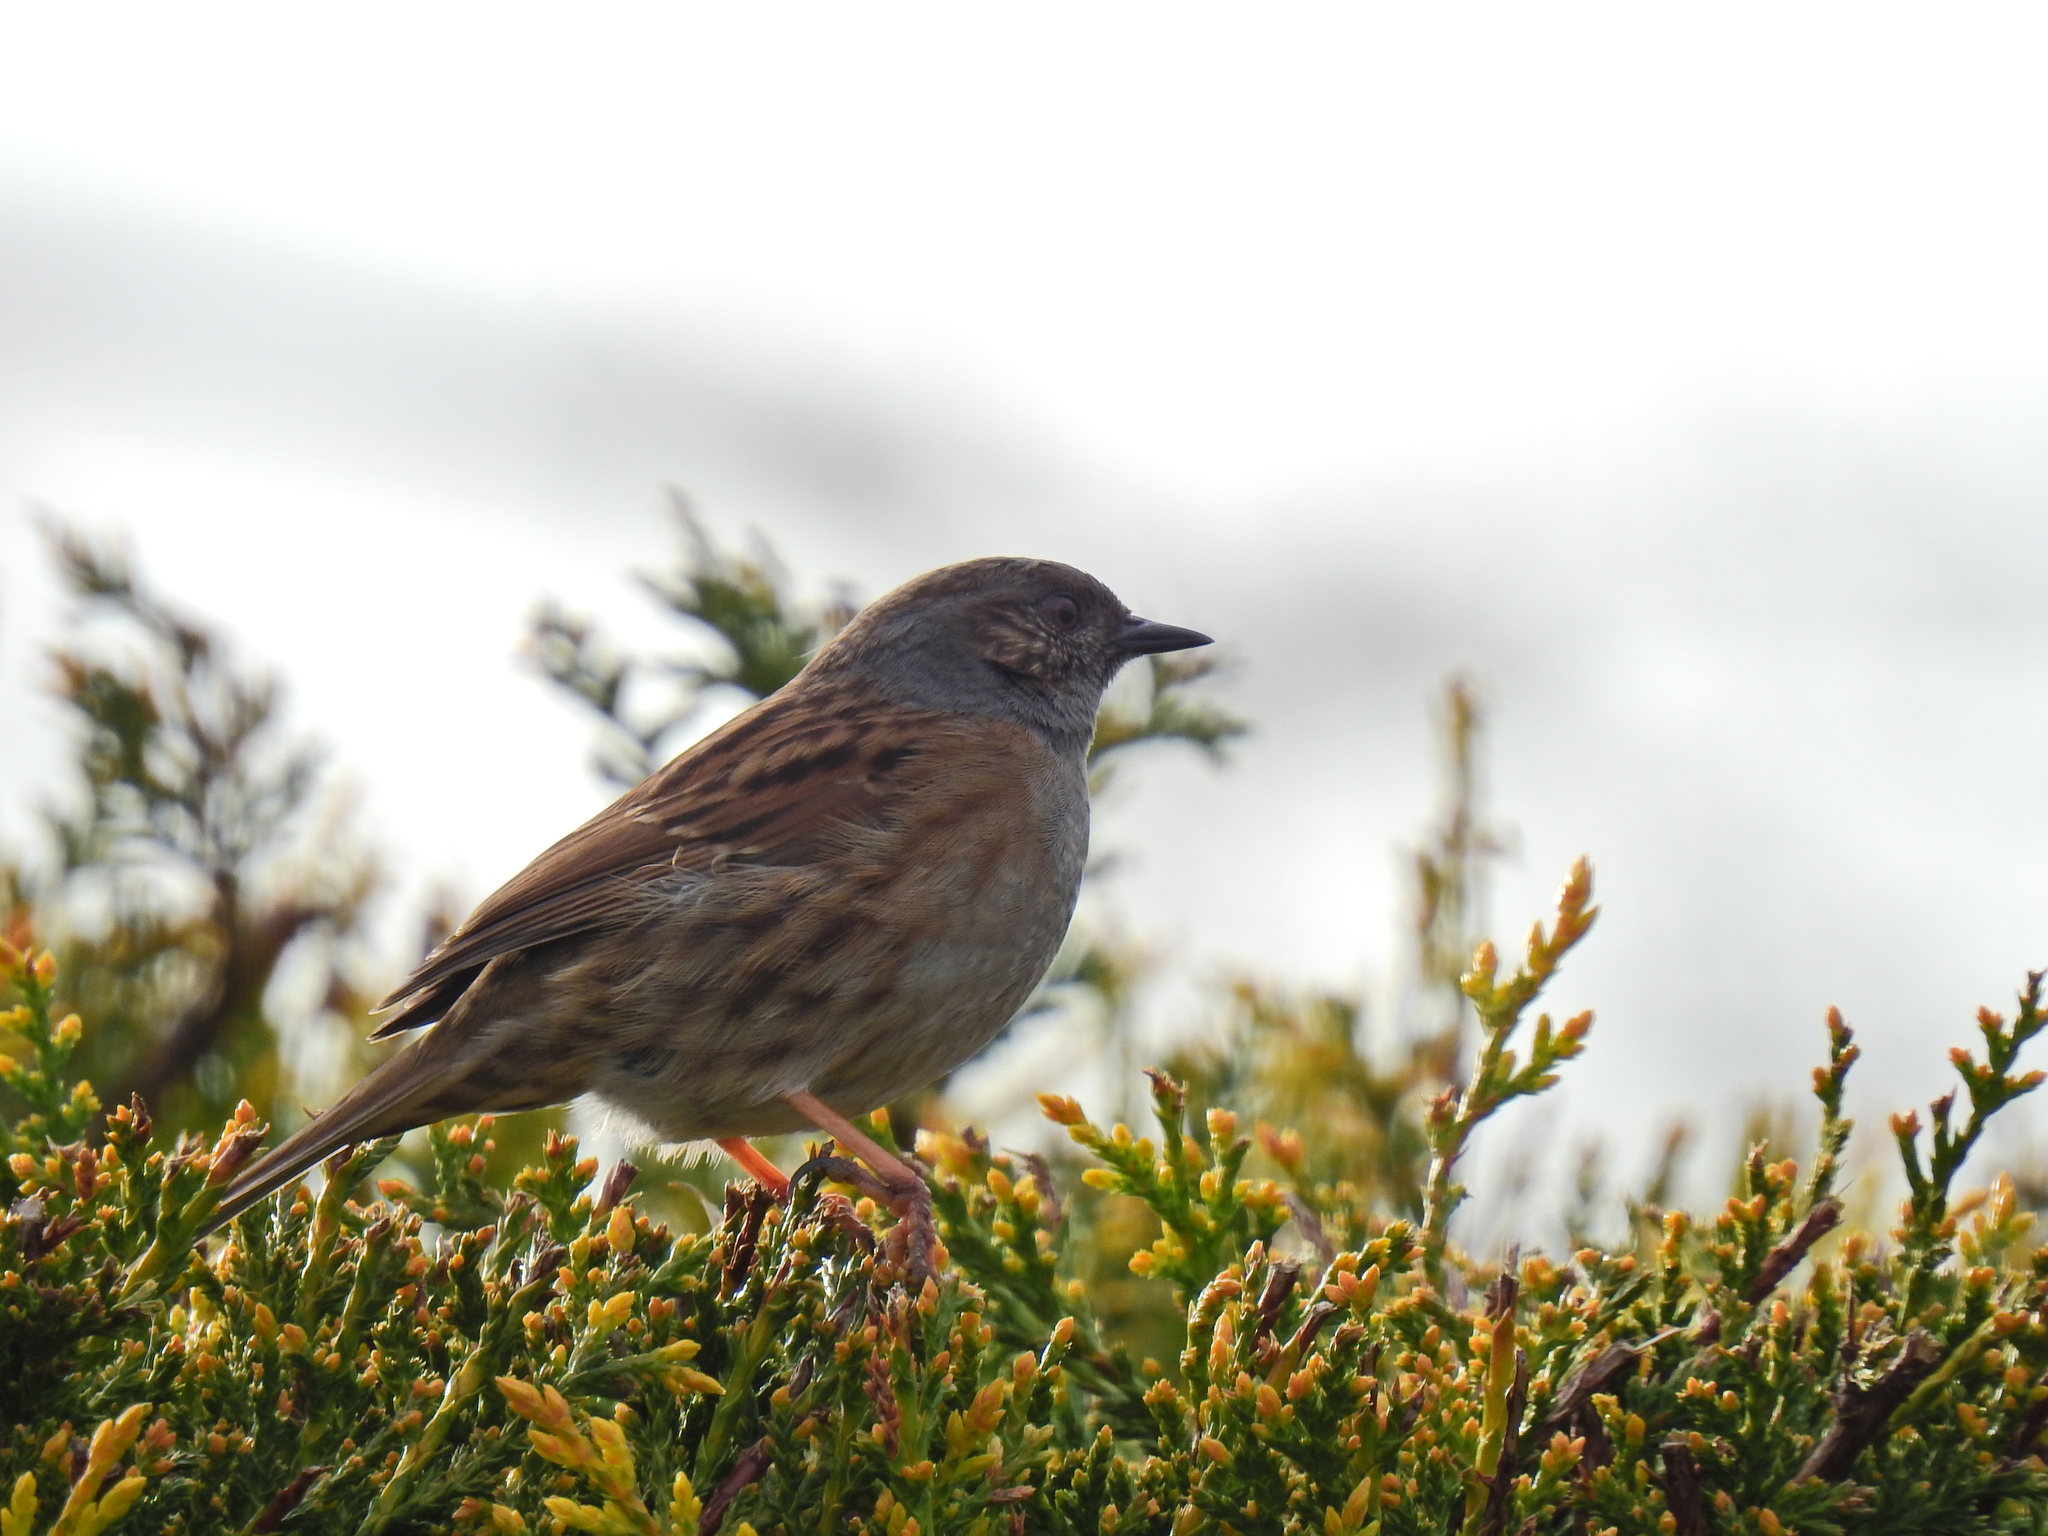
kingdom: Animalia
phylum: Chordata
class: Aves
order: Passeriformes
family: Prunellidae
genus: Prunella
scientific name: Prunella modularis
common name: Dunnock
